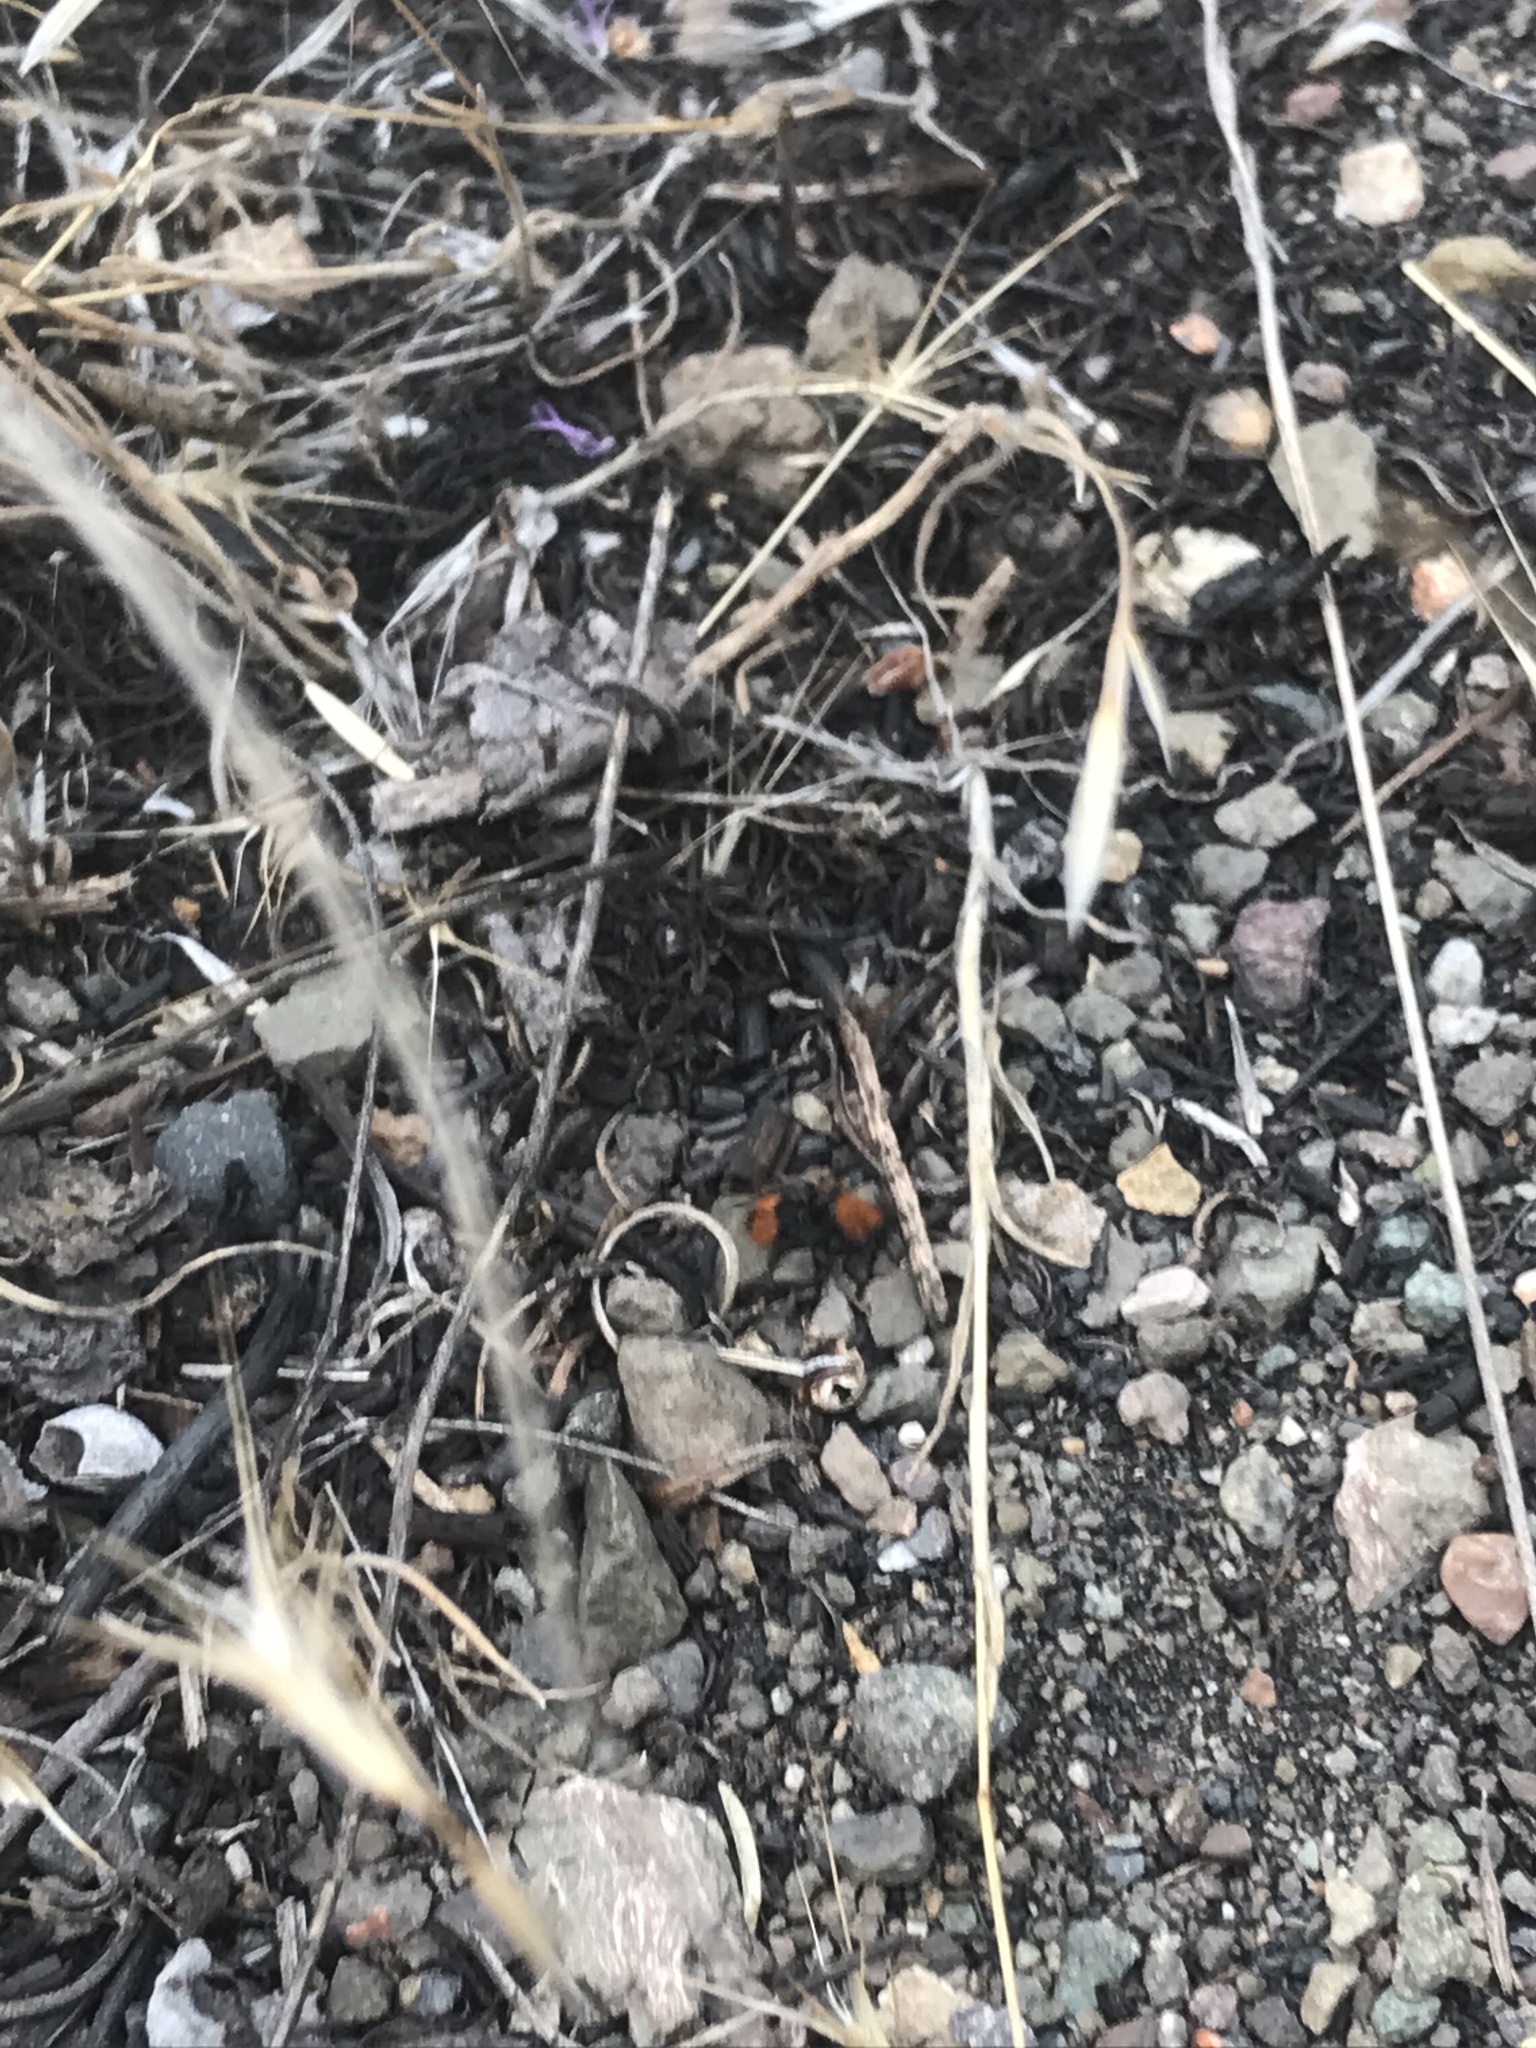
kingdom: Animalia
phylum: Arthropoda
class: Insecta
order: Hymenoptera
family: Mutillidae
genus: Dasymutilla
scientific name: Dasymutilla
